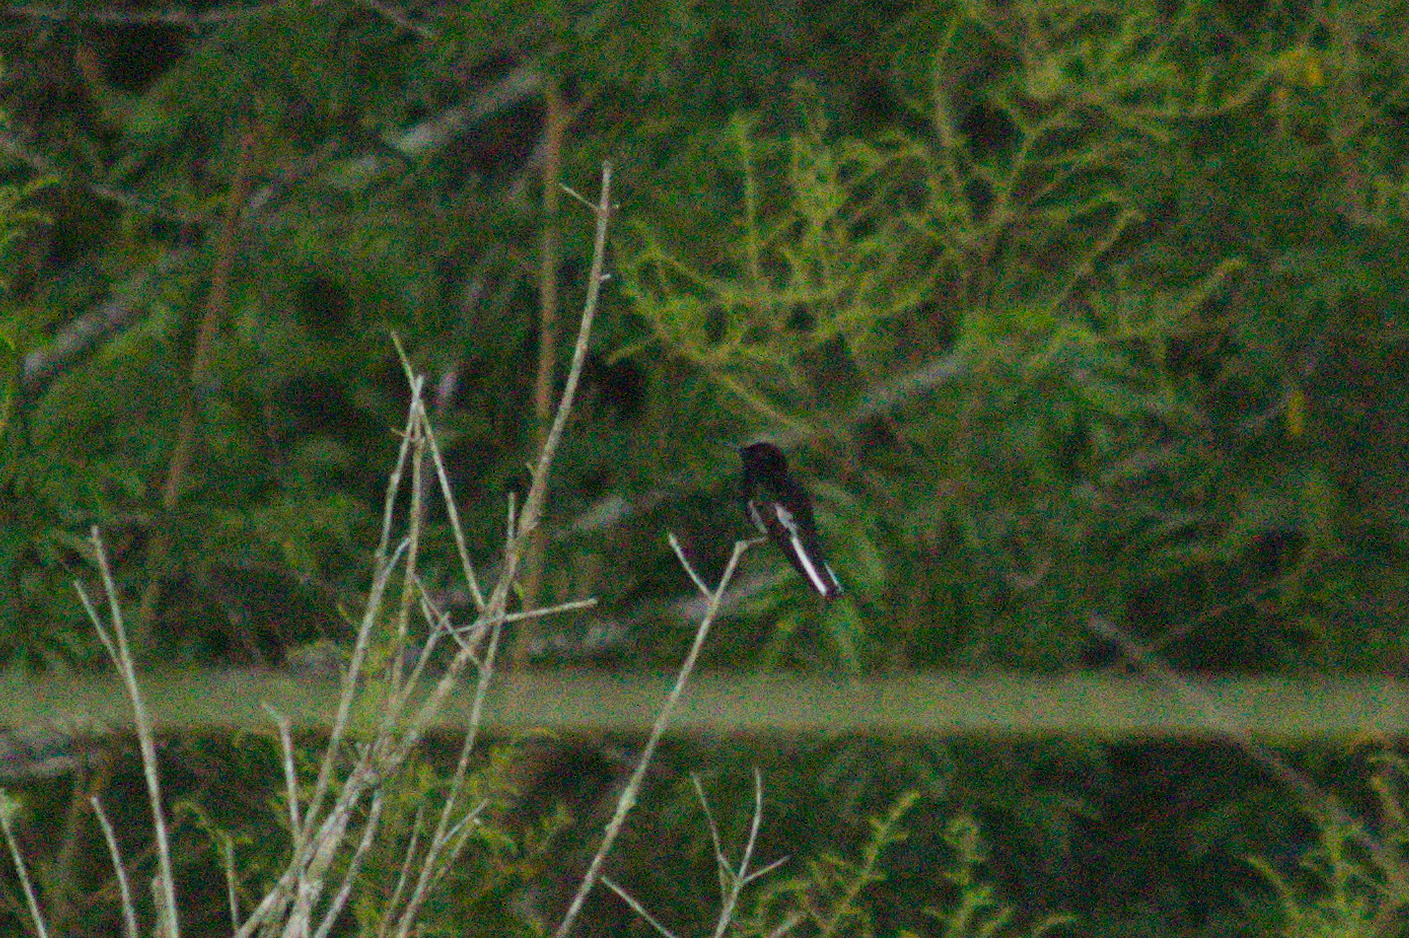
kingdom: Animalia
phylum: Chordata
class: Aves
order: Apodiformes
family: Trochilidae
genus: Florisuga
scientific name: Florisuga fusca
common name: Black jacobin
